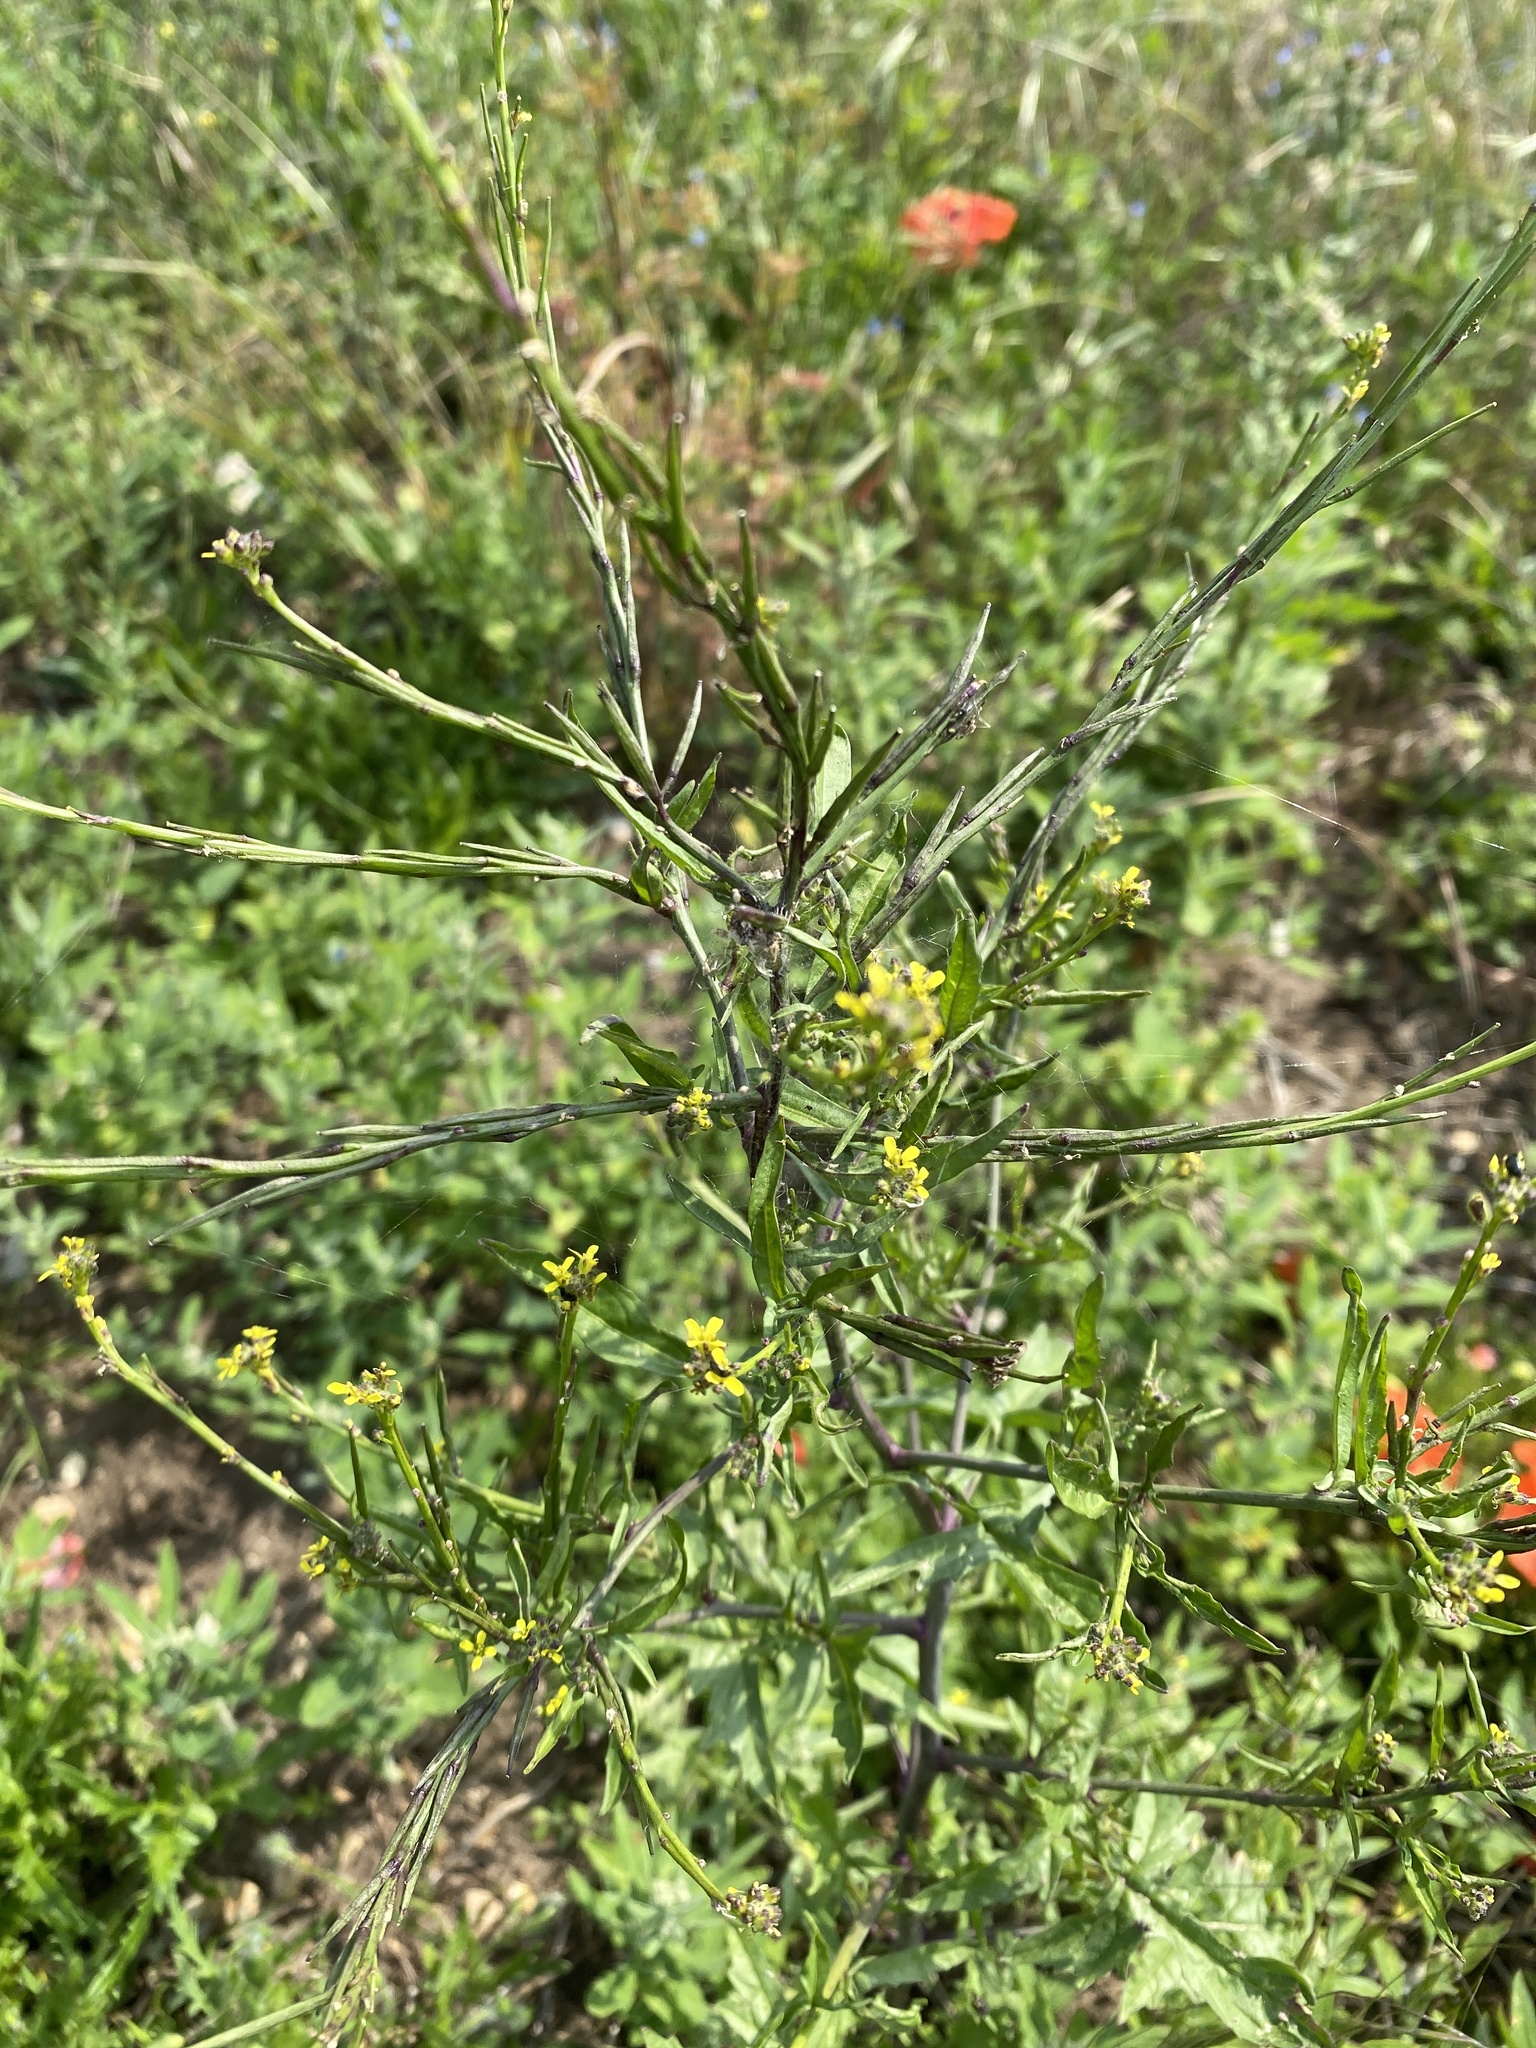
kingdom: Plantae
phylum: Tracheophyta
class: Magnoliopsida
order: Brassicales
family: Brassicaceae
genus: Sisymbrium
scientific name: Sisymbrium officinale
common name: Hedge mustard
